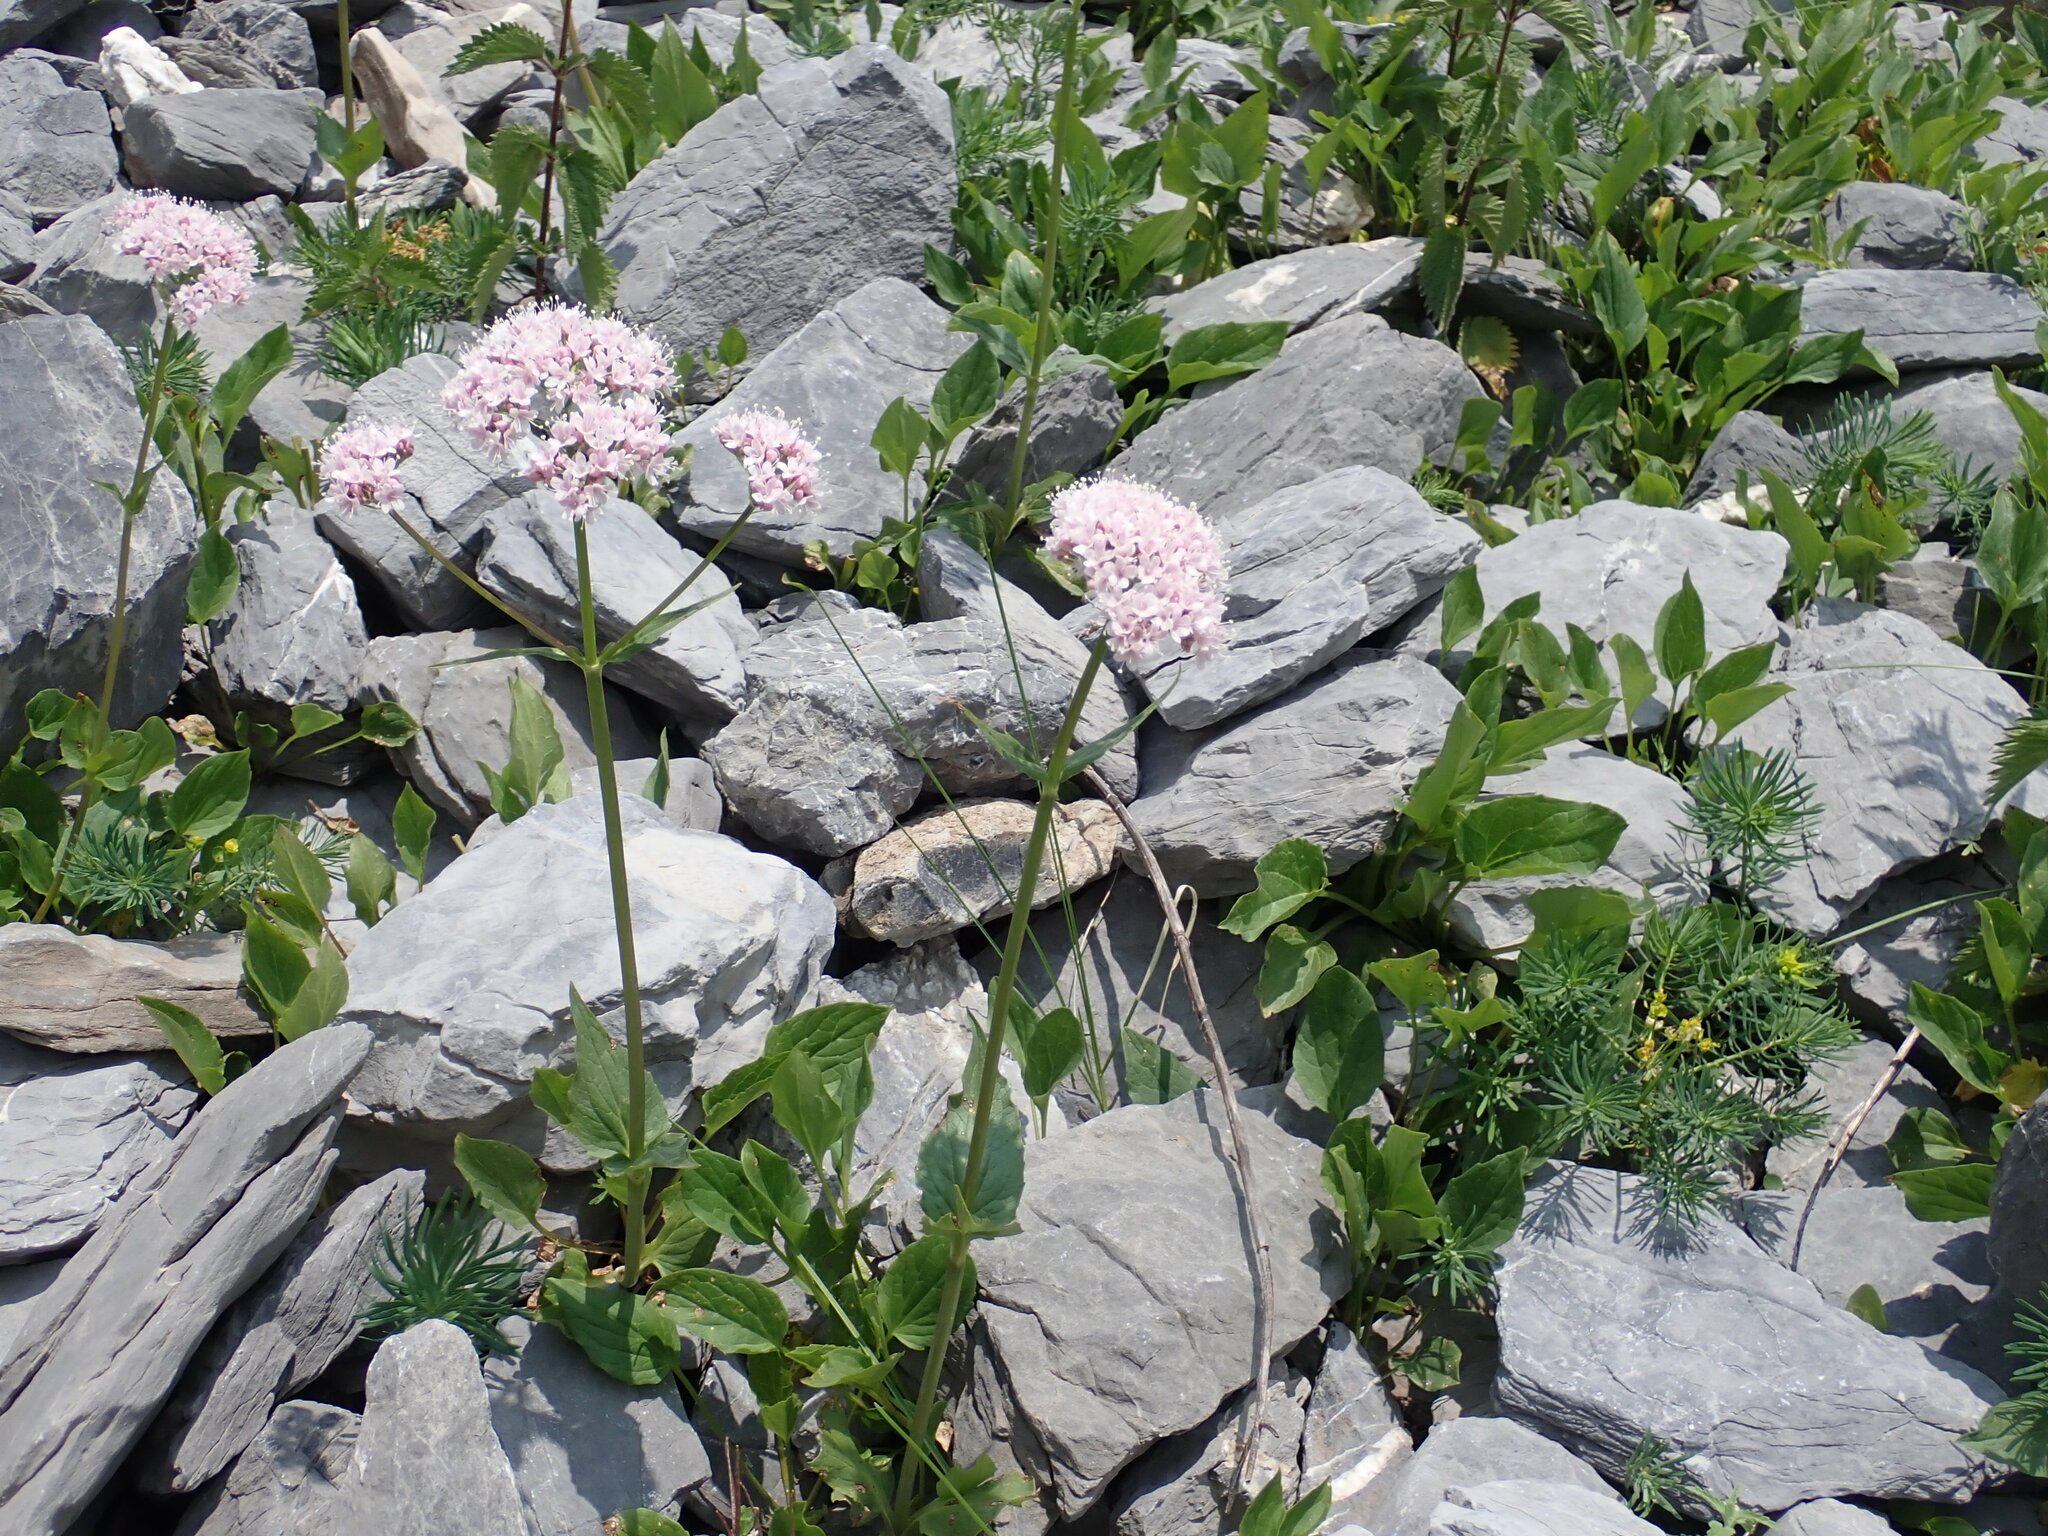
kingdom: Plantae
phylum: Tracheophyta
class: Magnoliopsida
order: Dipsacales
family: Caprifoliaceae
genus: Valeriana
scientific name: Valeriana montana
